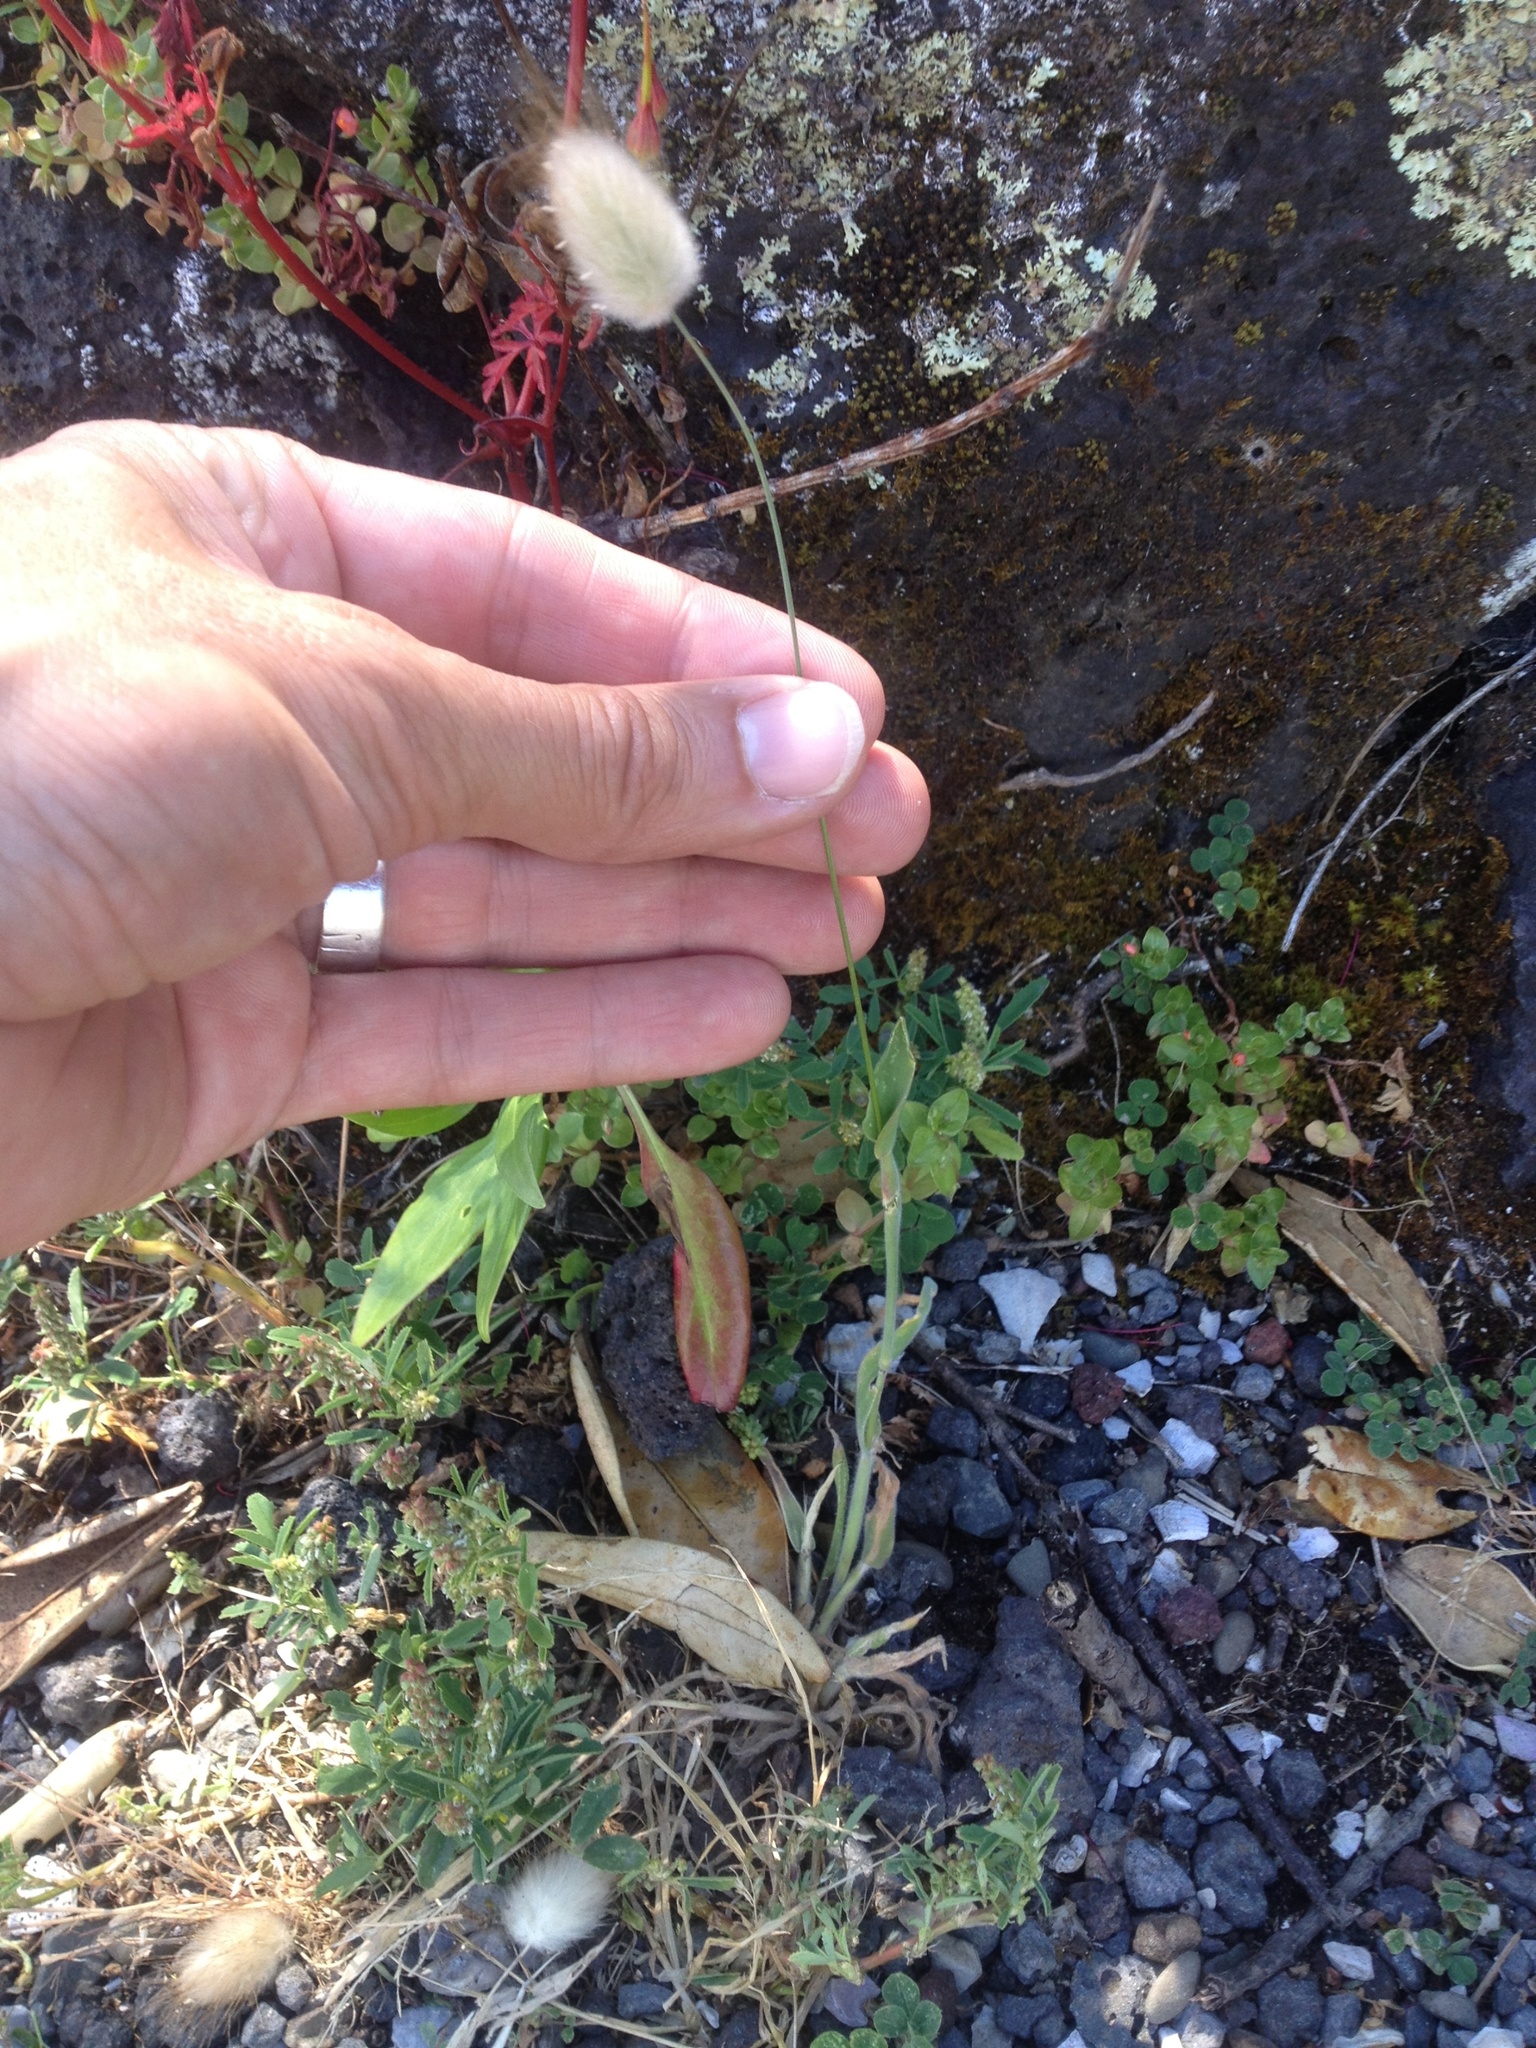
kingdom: Plantae
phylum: Tracheophyta
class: Liliopsida
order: Poales
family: Poaceae
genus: Lagurus
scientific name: Lagurus ovatus
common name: Hare's-tail
